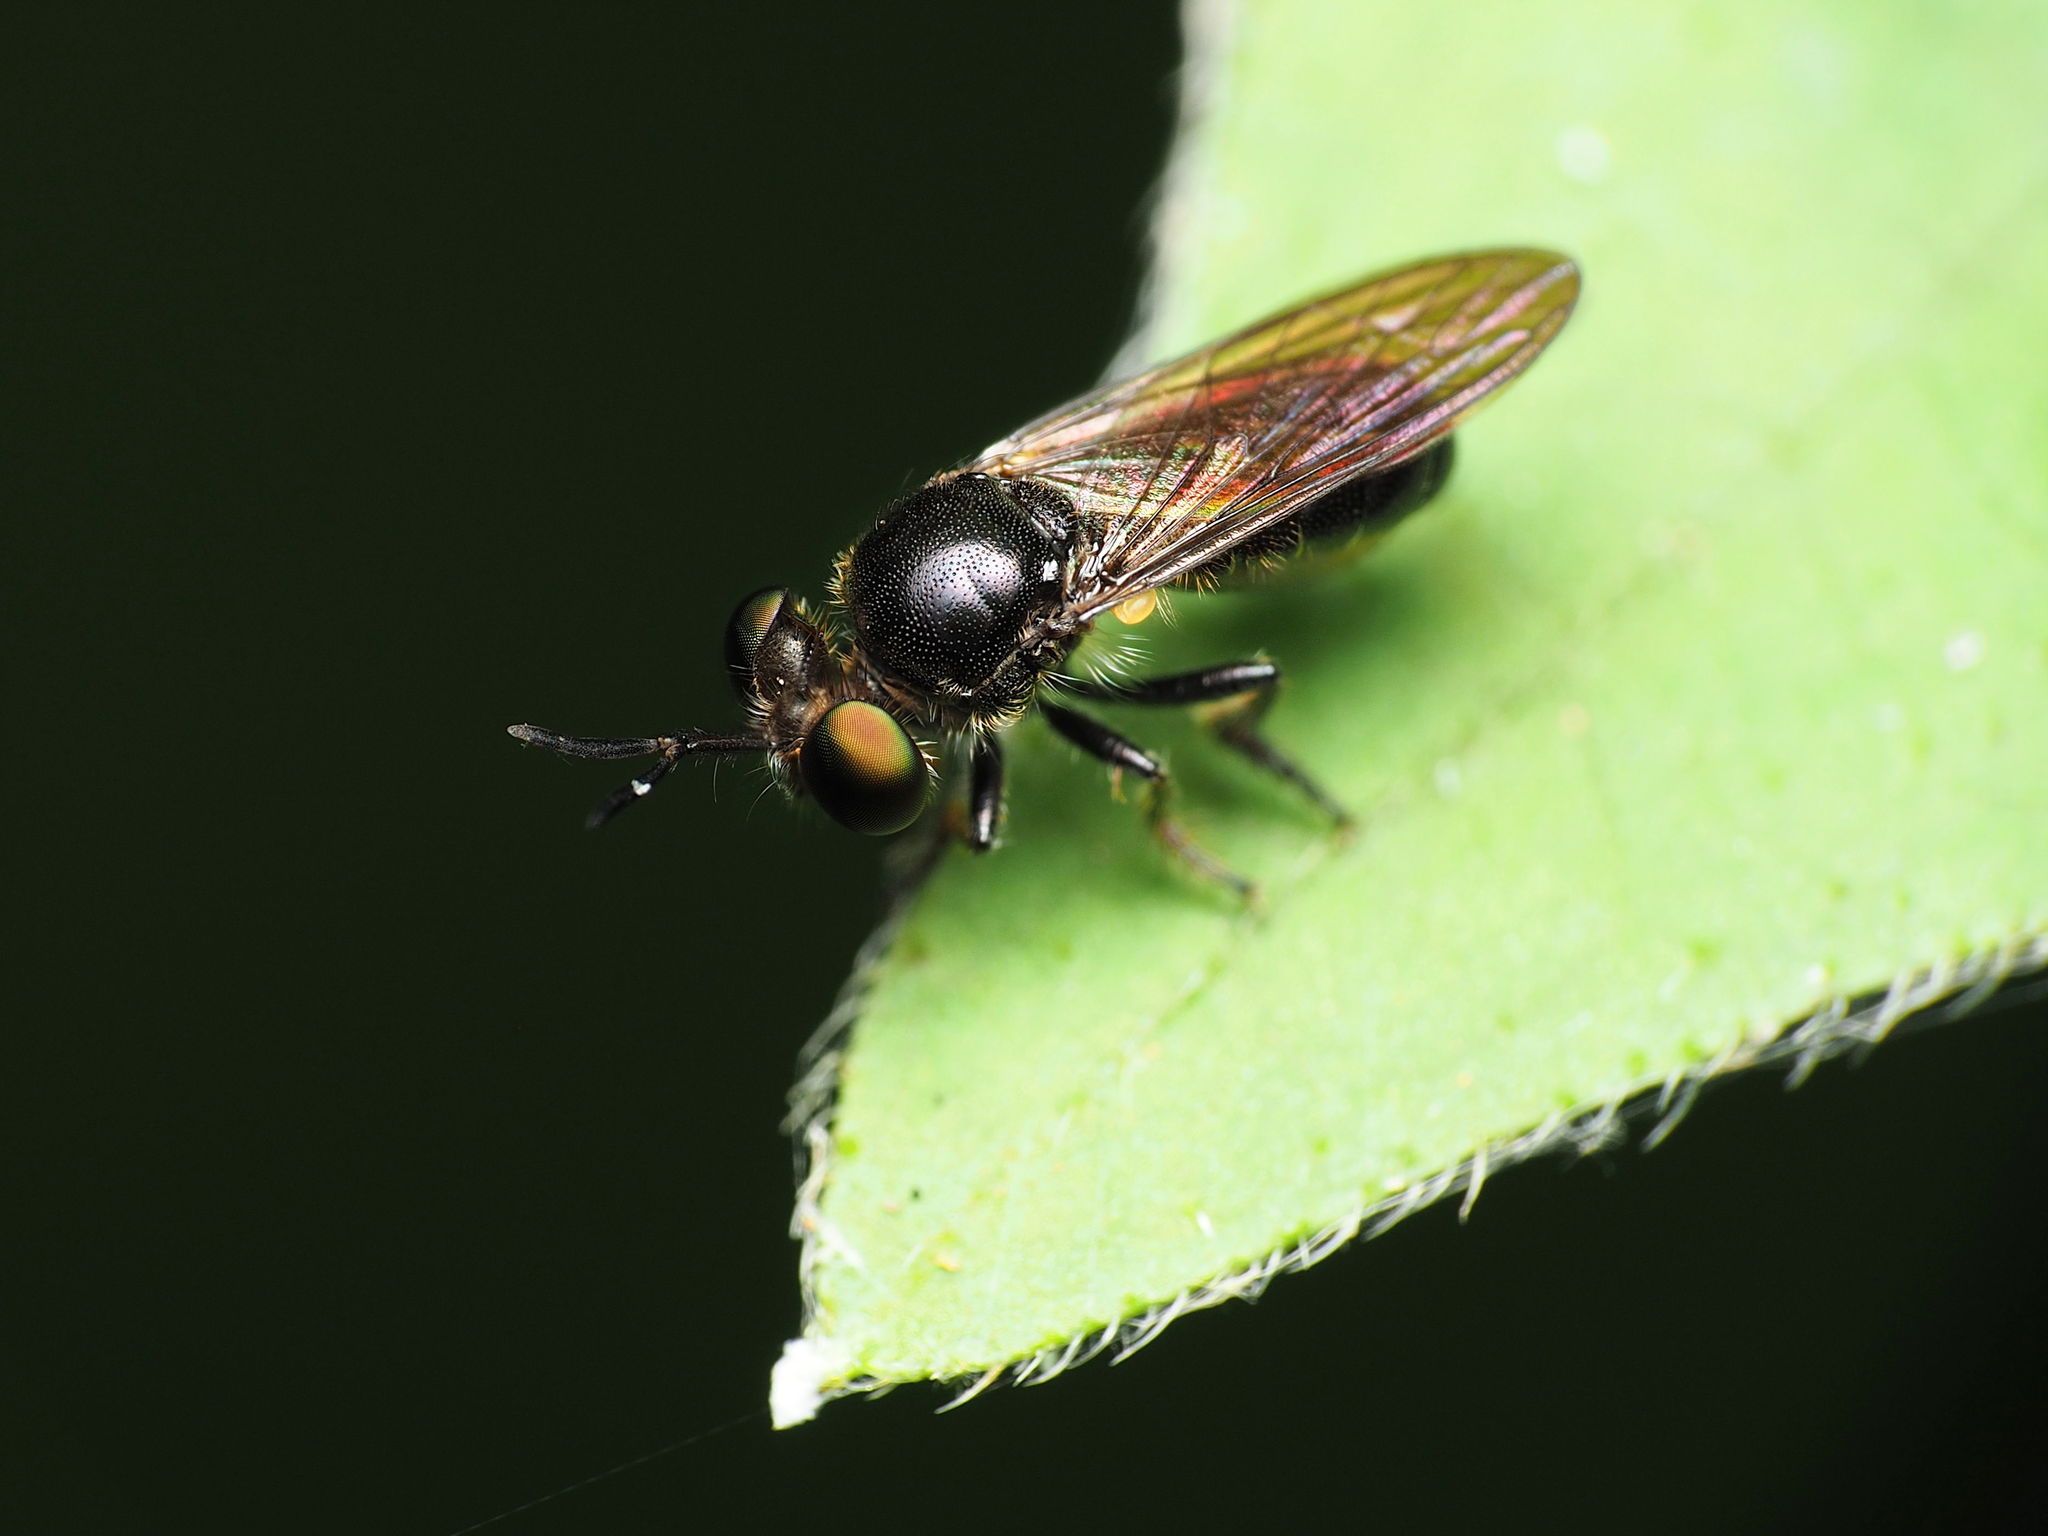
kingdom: Animalia
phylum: Arthropoda
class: Insecta
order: Diptera
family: Asilidae
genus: Cerotainia
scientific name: Cerotainia macrocera
